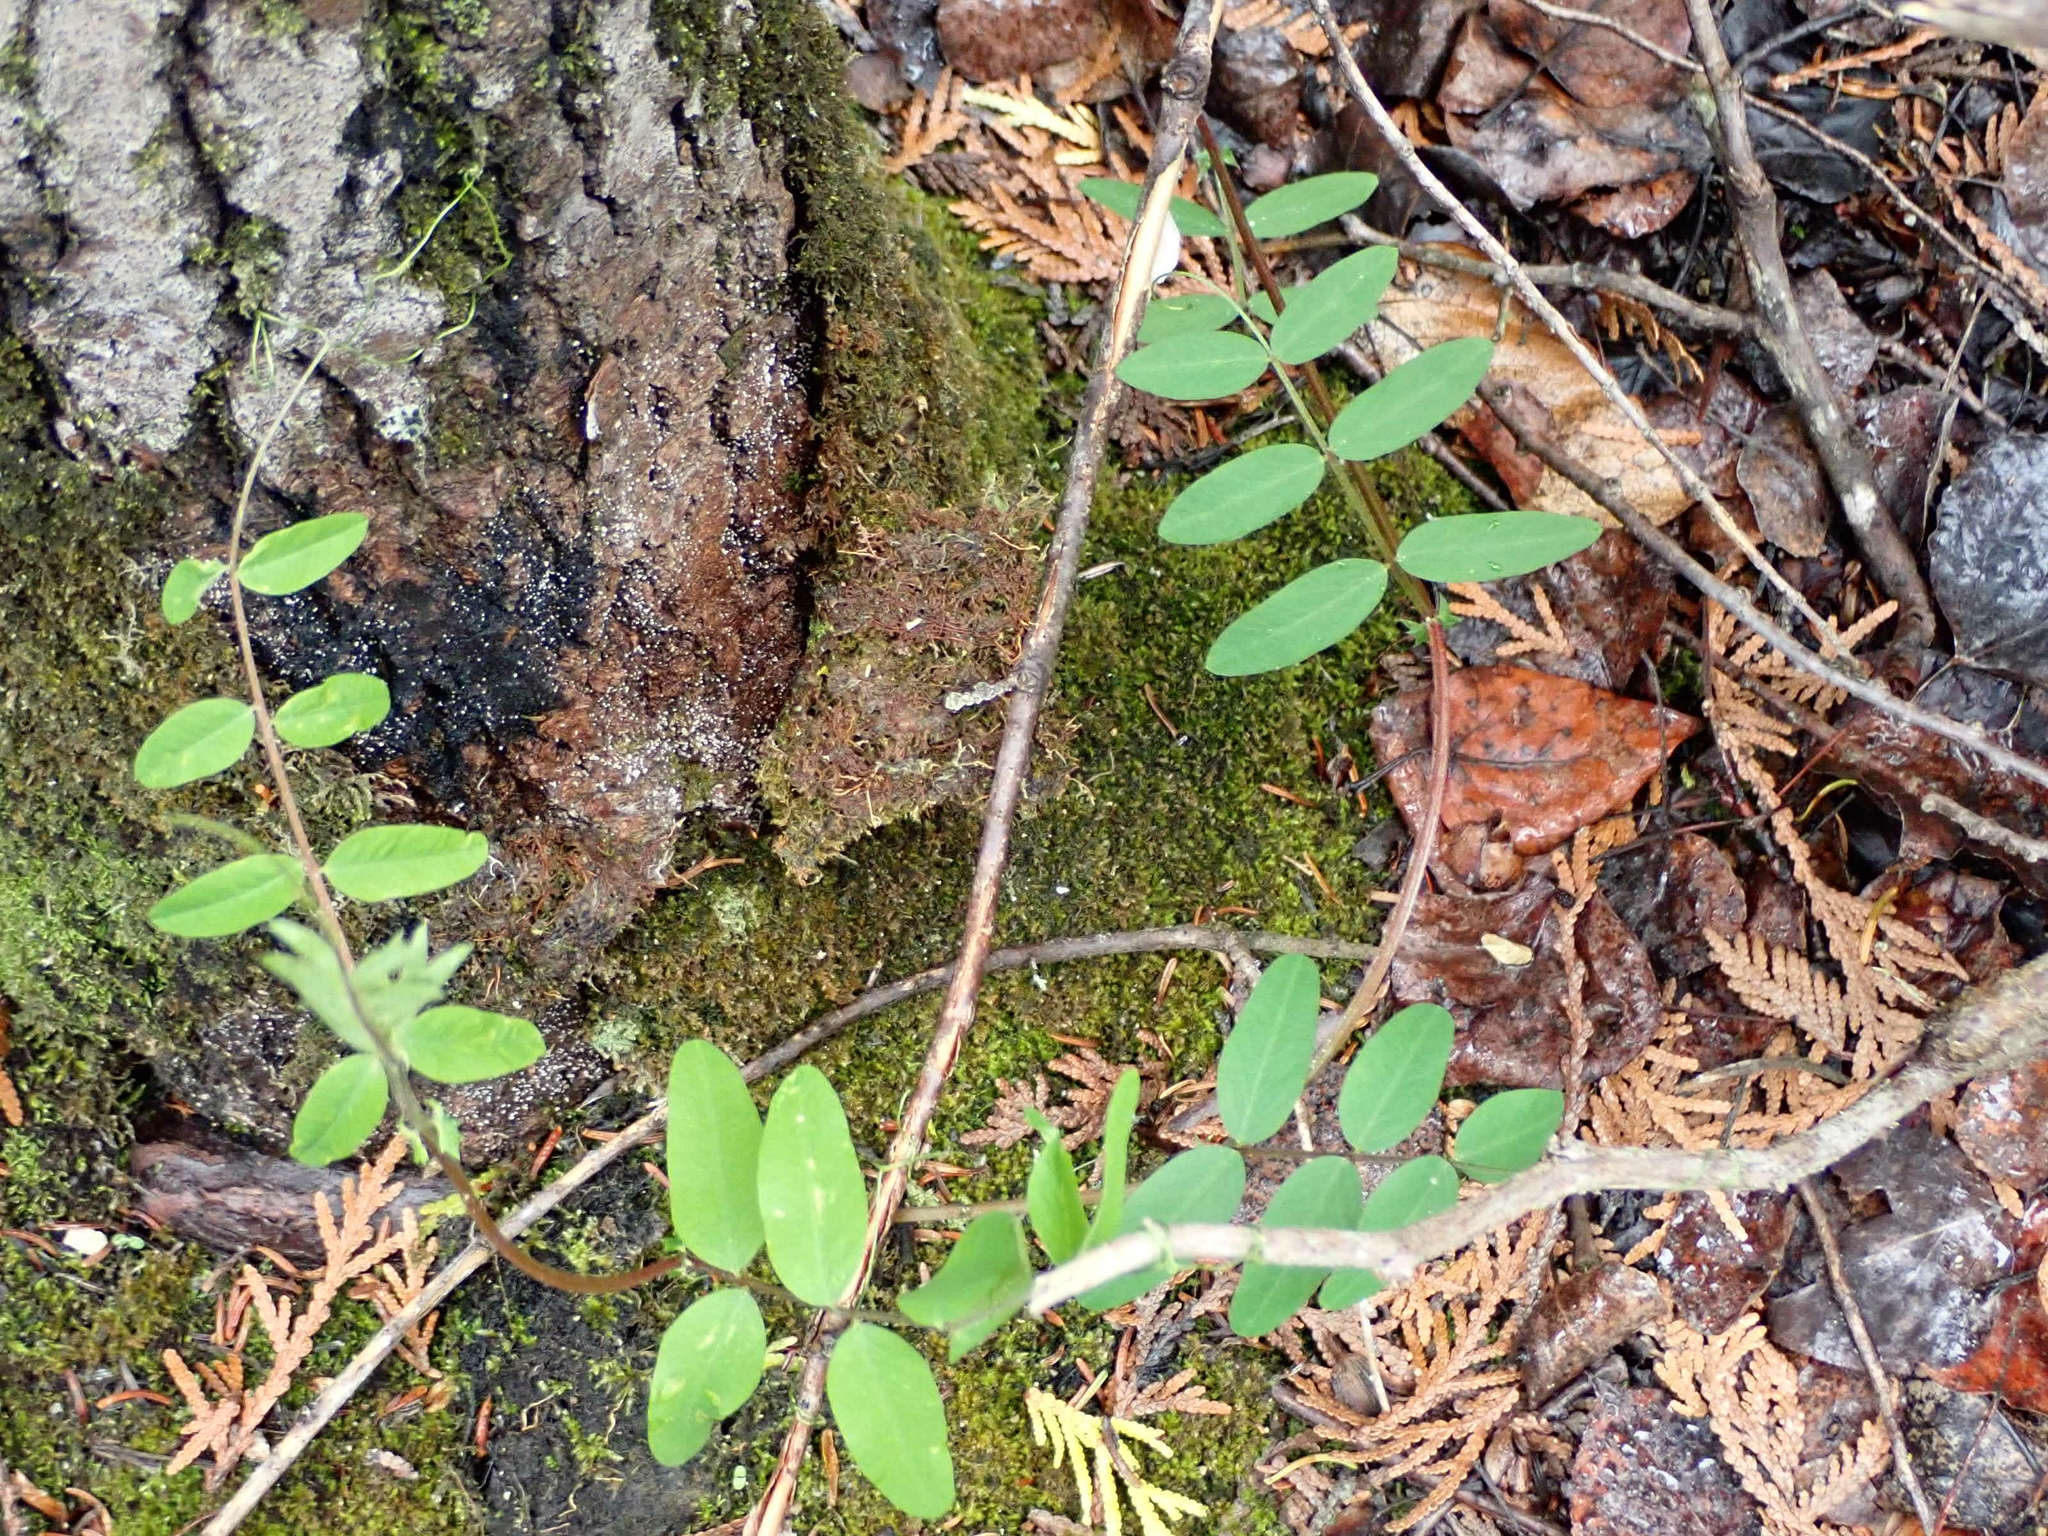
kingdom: Plantae
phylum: Tracheophyta
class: Magnoliopsida
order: Fabales
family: Fabaceae
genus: Vicia
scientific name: Vicia americana
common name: American vetch
